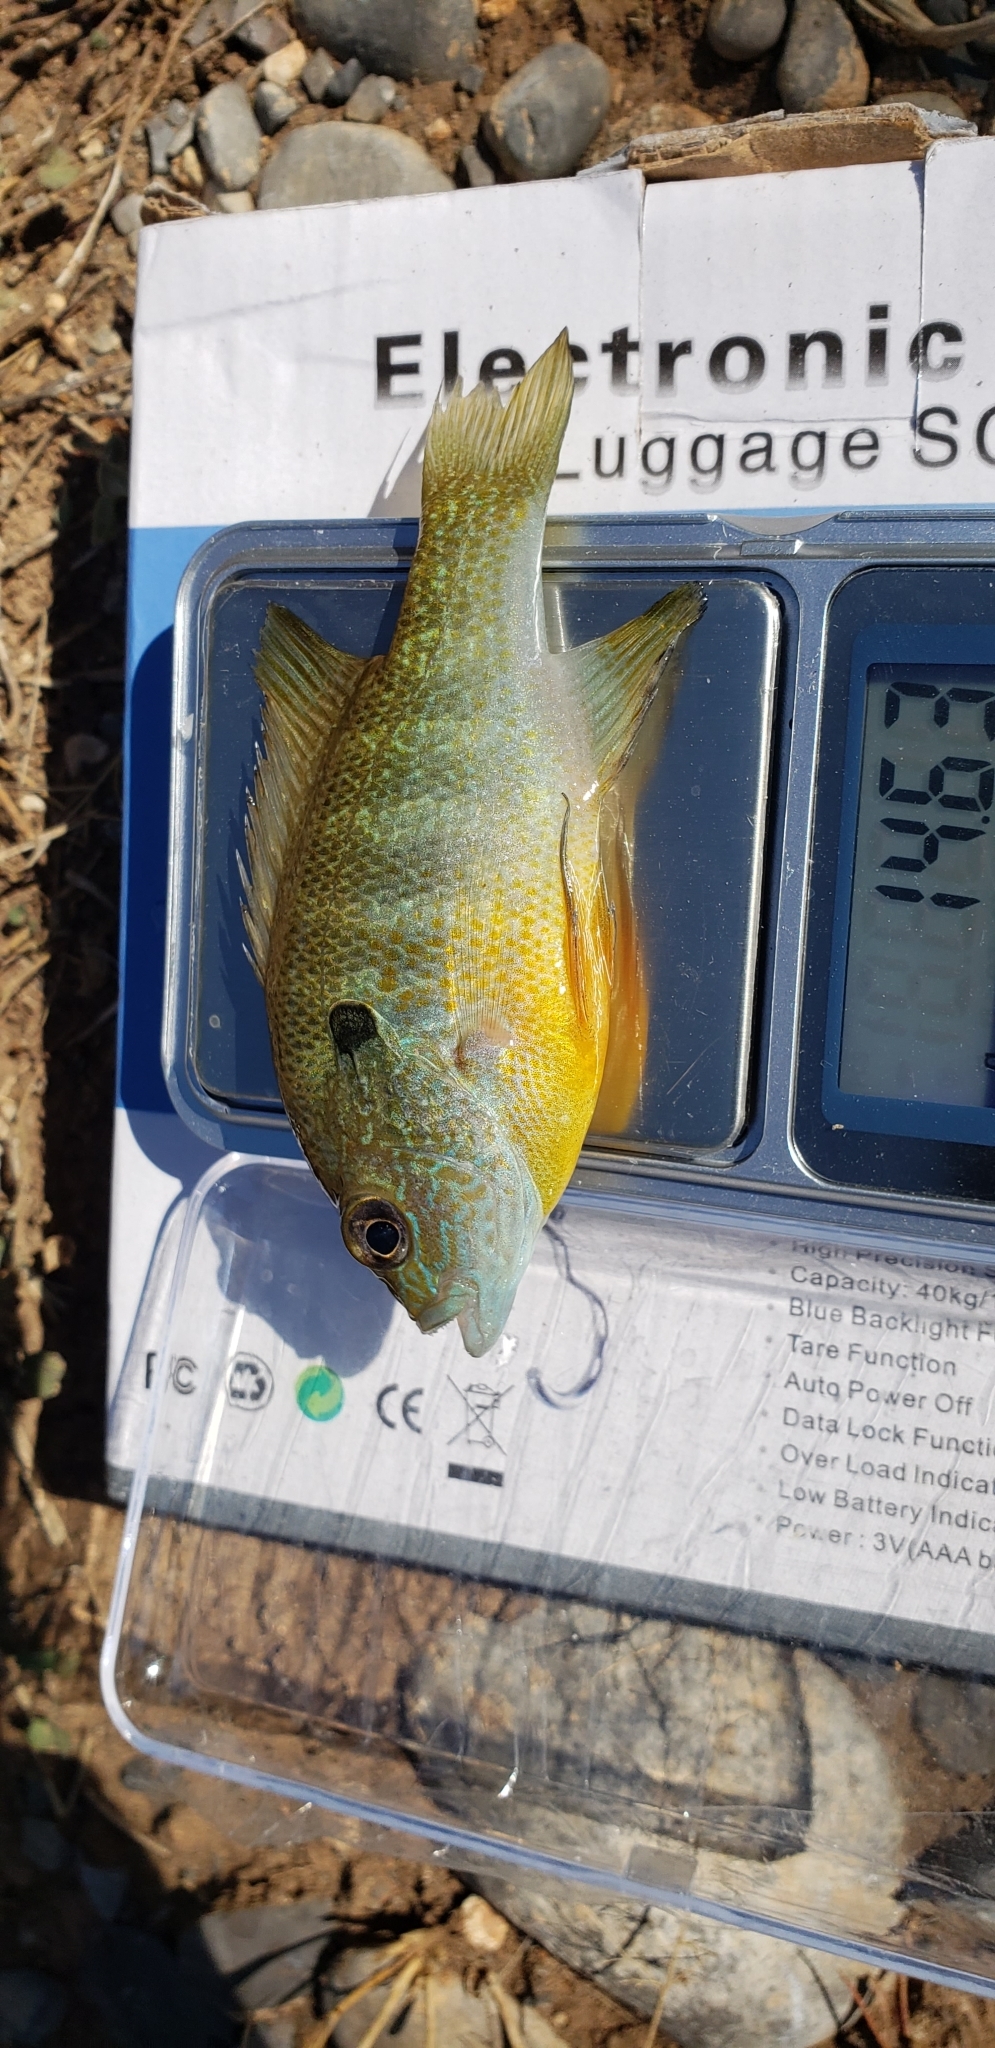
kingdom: Animalia
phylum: Chordata
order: Perciformes
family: Centrarchidae
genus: Lepomis
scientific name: Lepomis megalotis
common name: Longear sunfish
